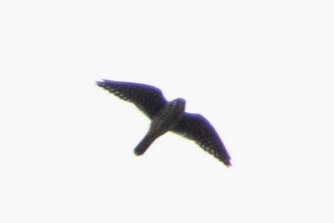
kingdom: Animalia
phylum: Chordata
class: Aves
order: Falconiformes
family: Falconidae
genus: Falco
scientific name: Falco sparverius
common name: American kestrel
